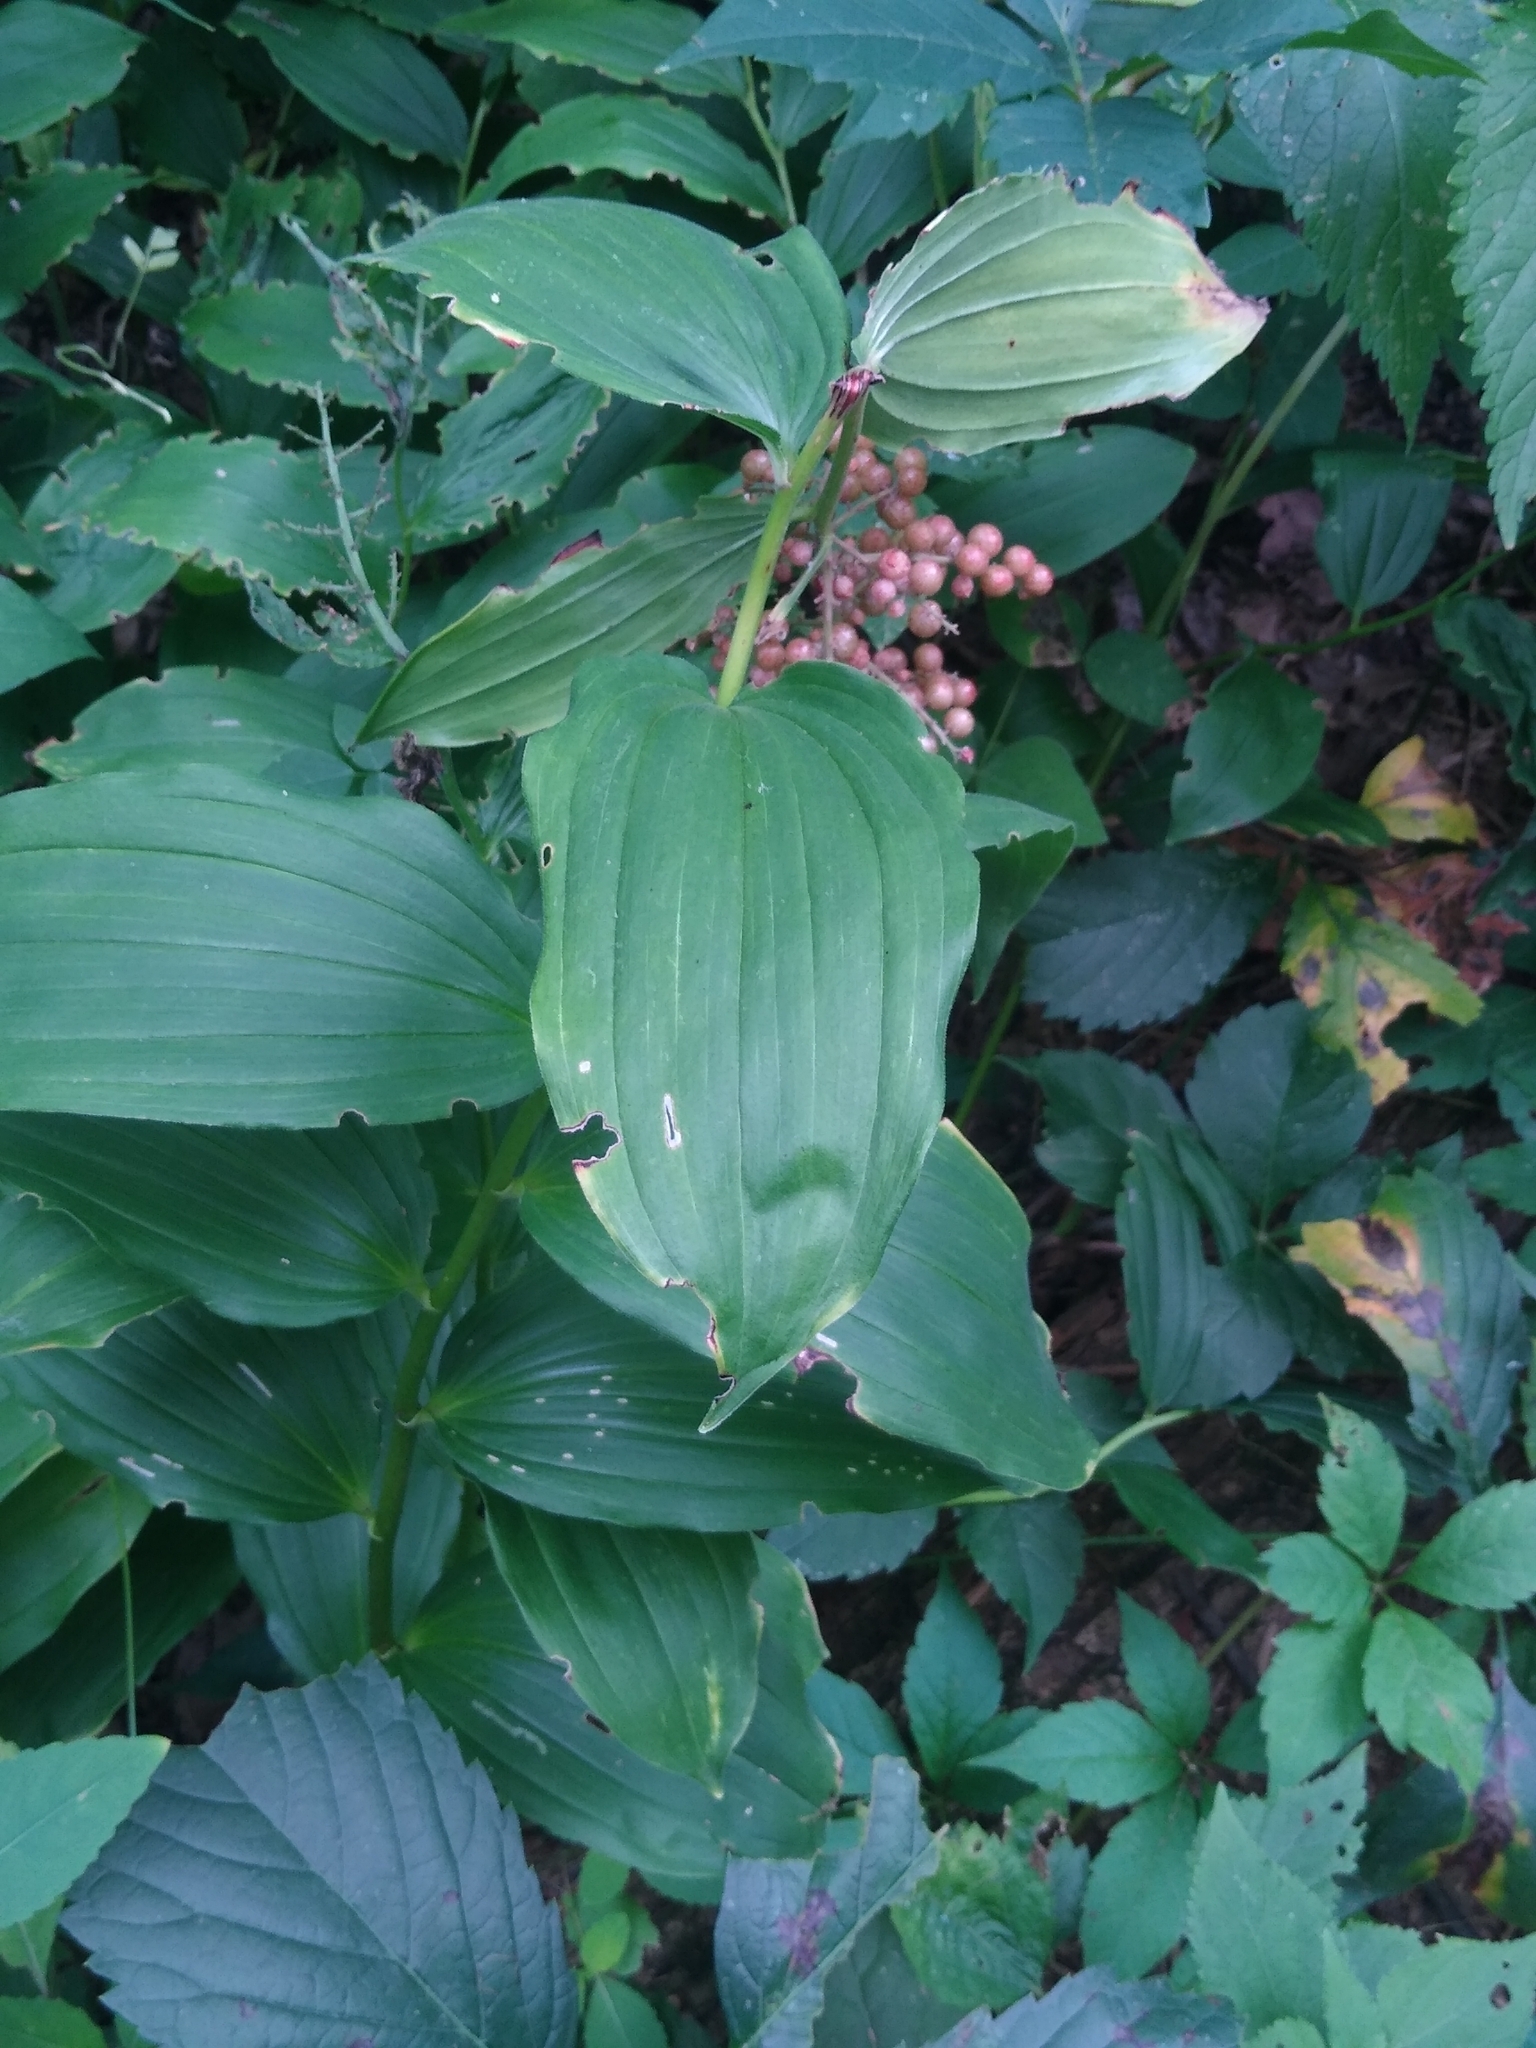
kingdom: Plantae
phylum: Tracheophyta
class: Liliopsida
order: Asparagales
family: Asparagaceae
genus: Maianthemum
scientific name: Maianthemum racemosum
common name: False spikenard
